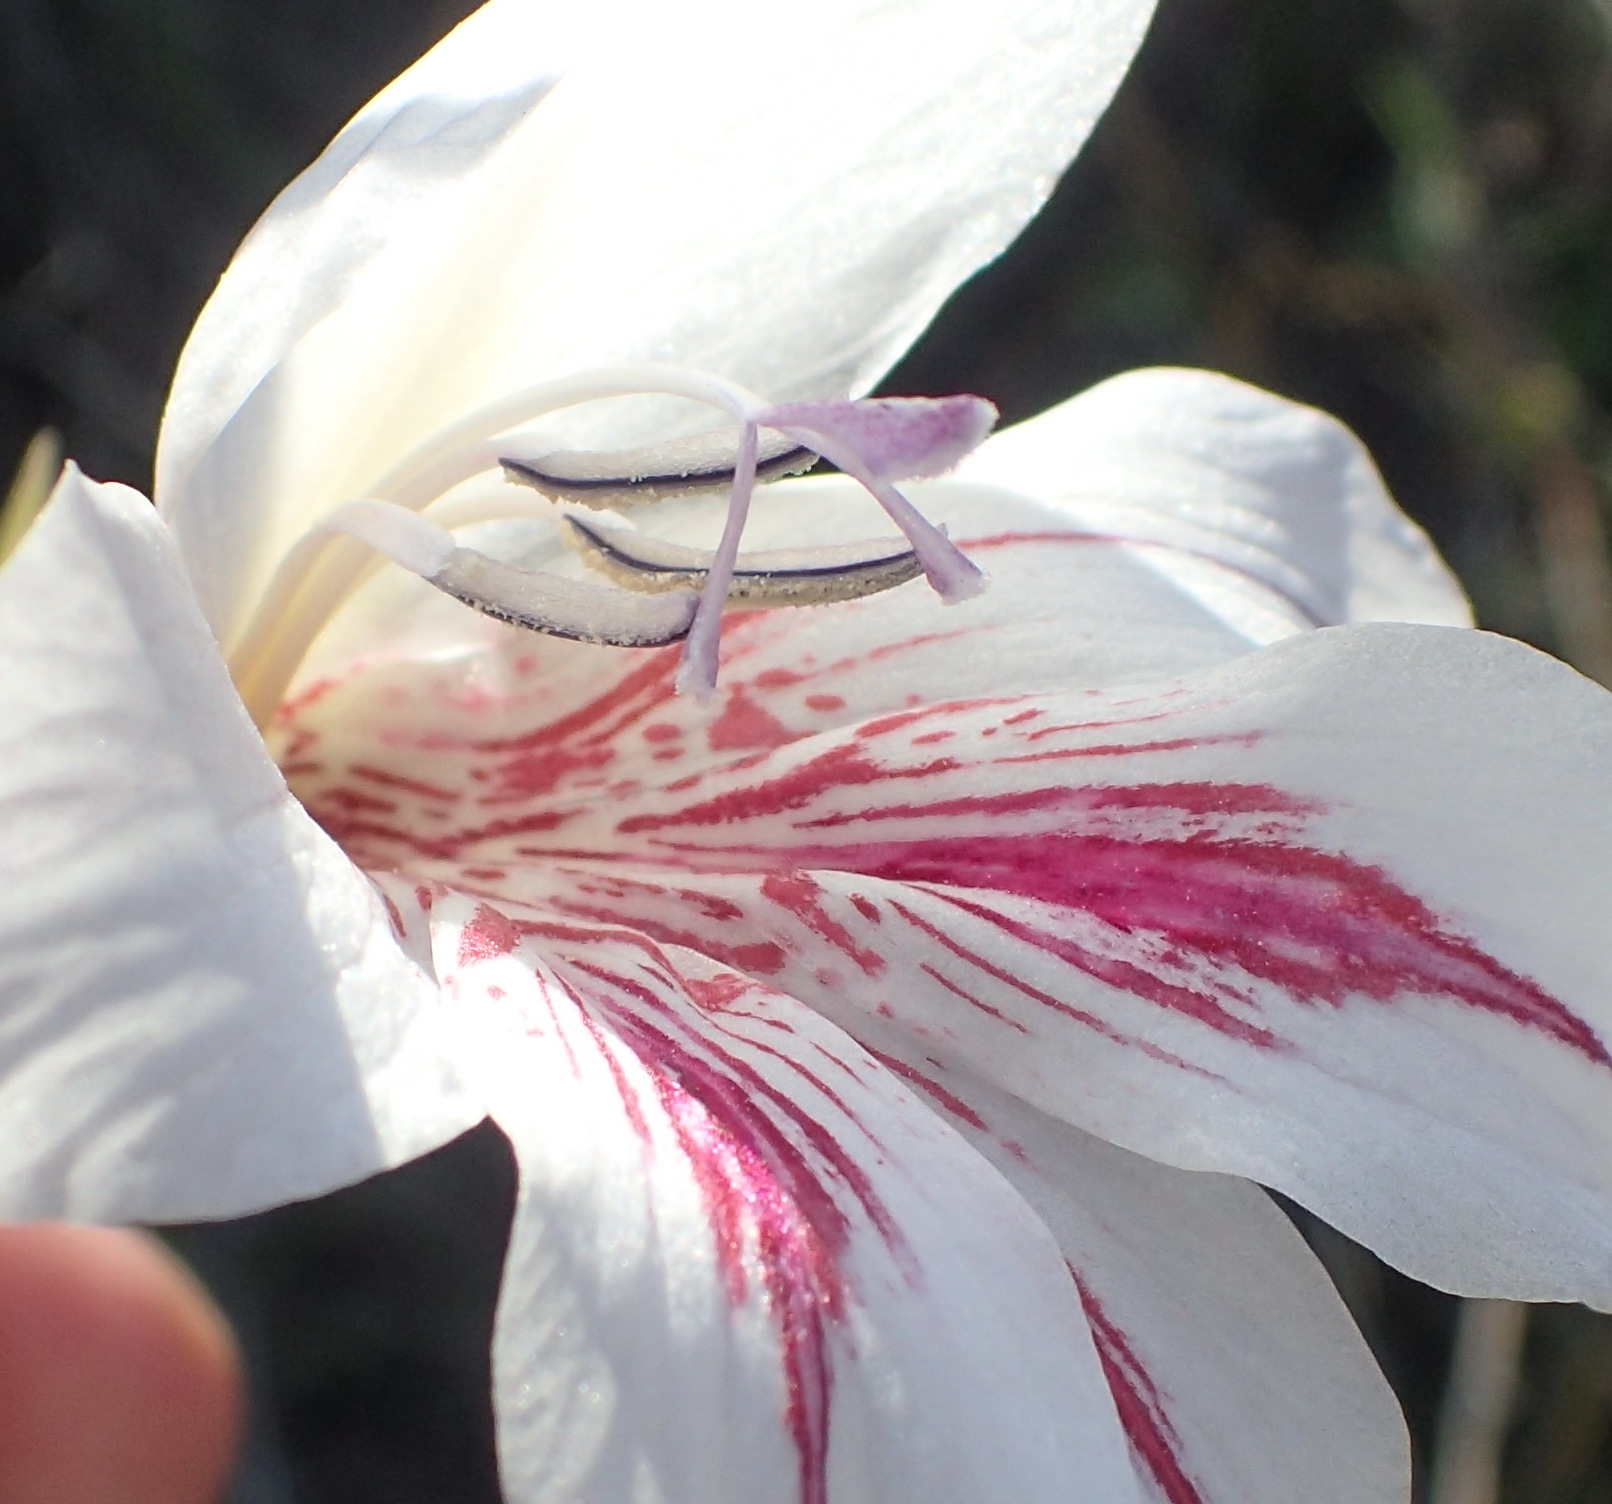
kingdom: Plantae
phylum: Tracheophyta
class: Liliopsida
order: Asparagales
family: Iridaceae
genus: Gladiolus
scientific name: Gladiolus roseovenosus
